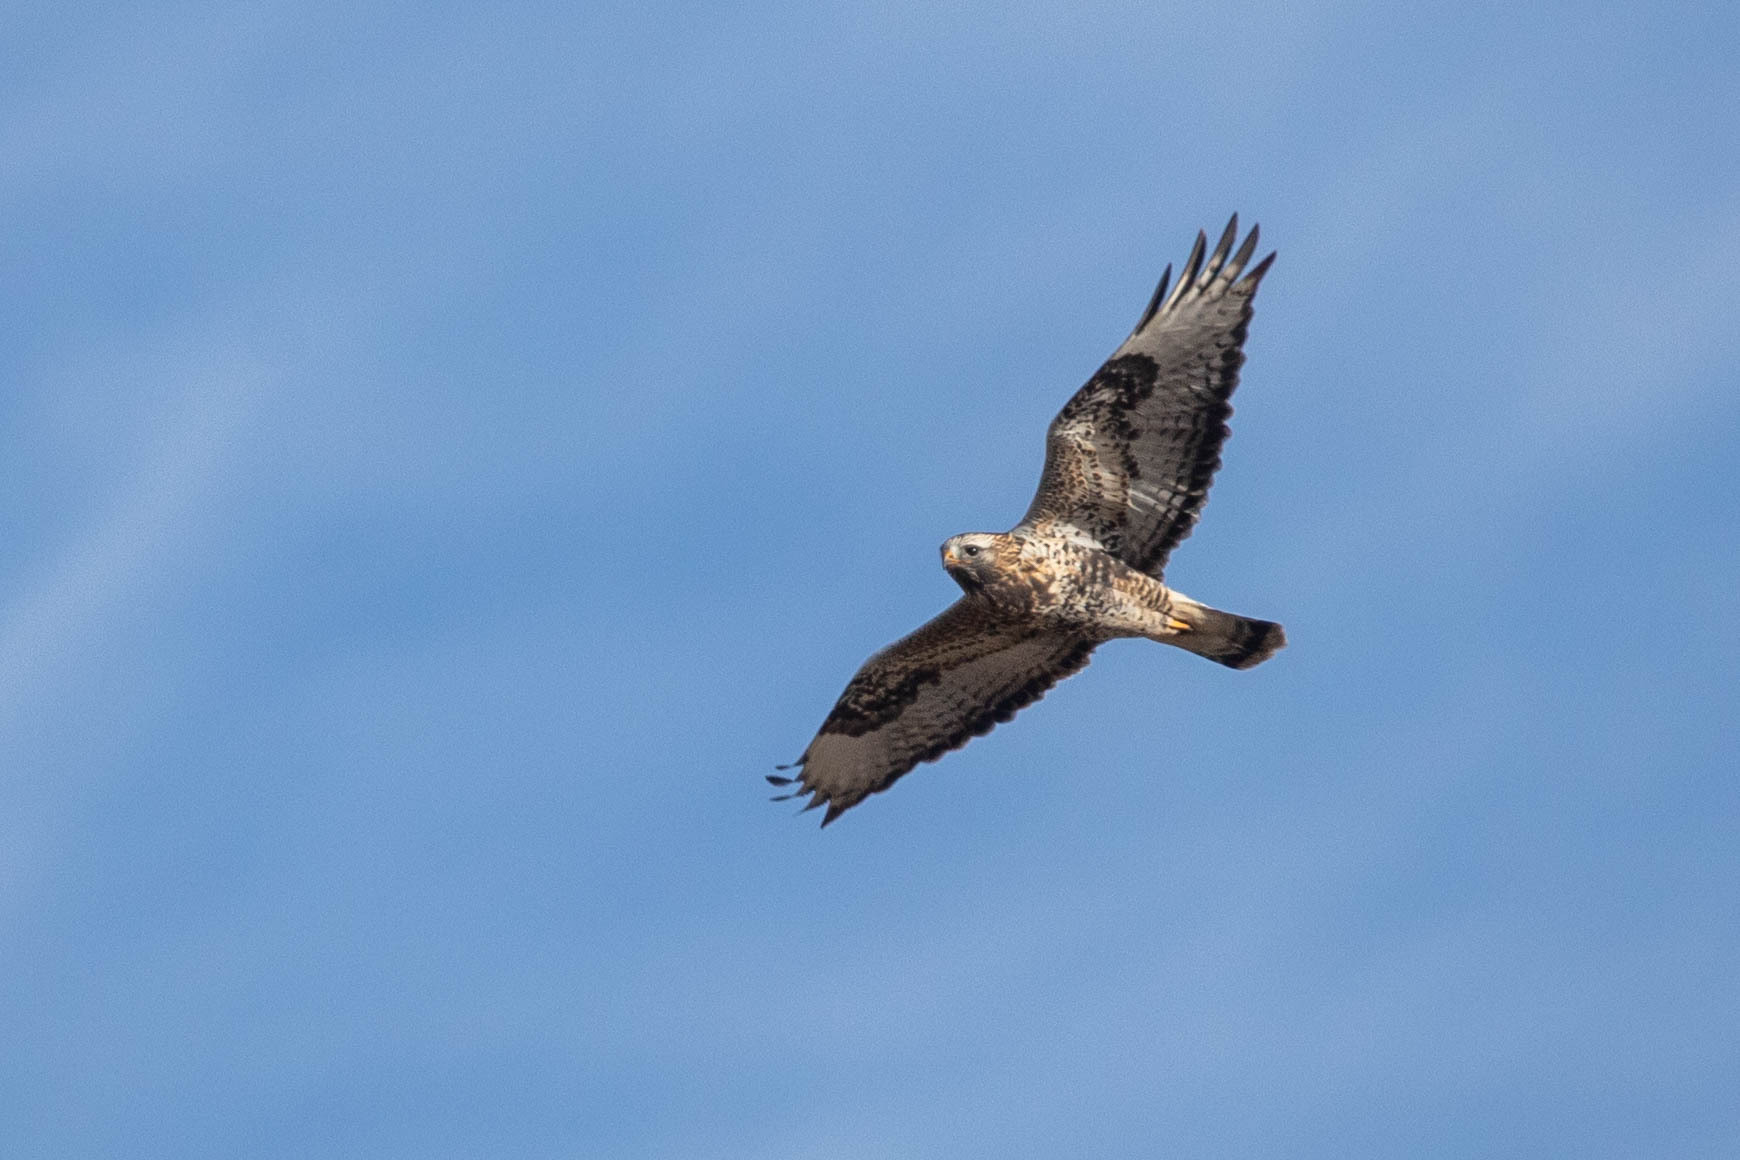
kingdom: Animalia
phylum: Chordata
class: Aves
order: Accipitriformes
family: Accipitridae
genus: Buteo
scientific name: Buteo lagopus
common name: Rough-legged buzzard
